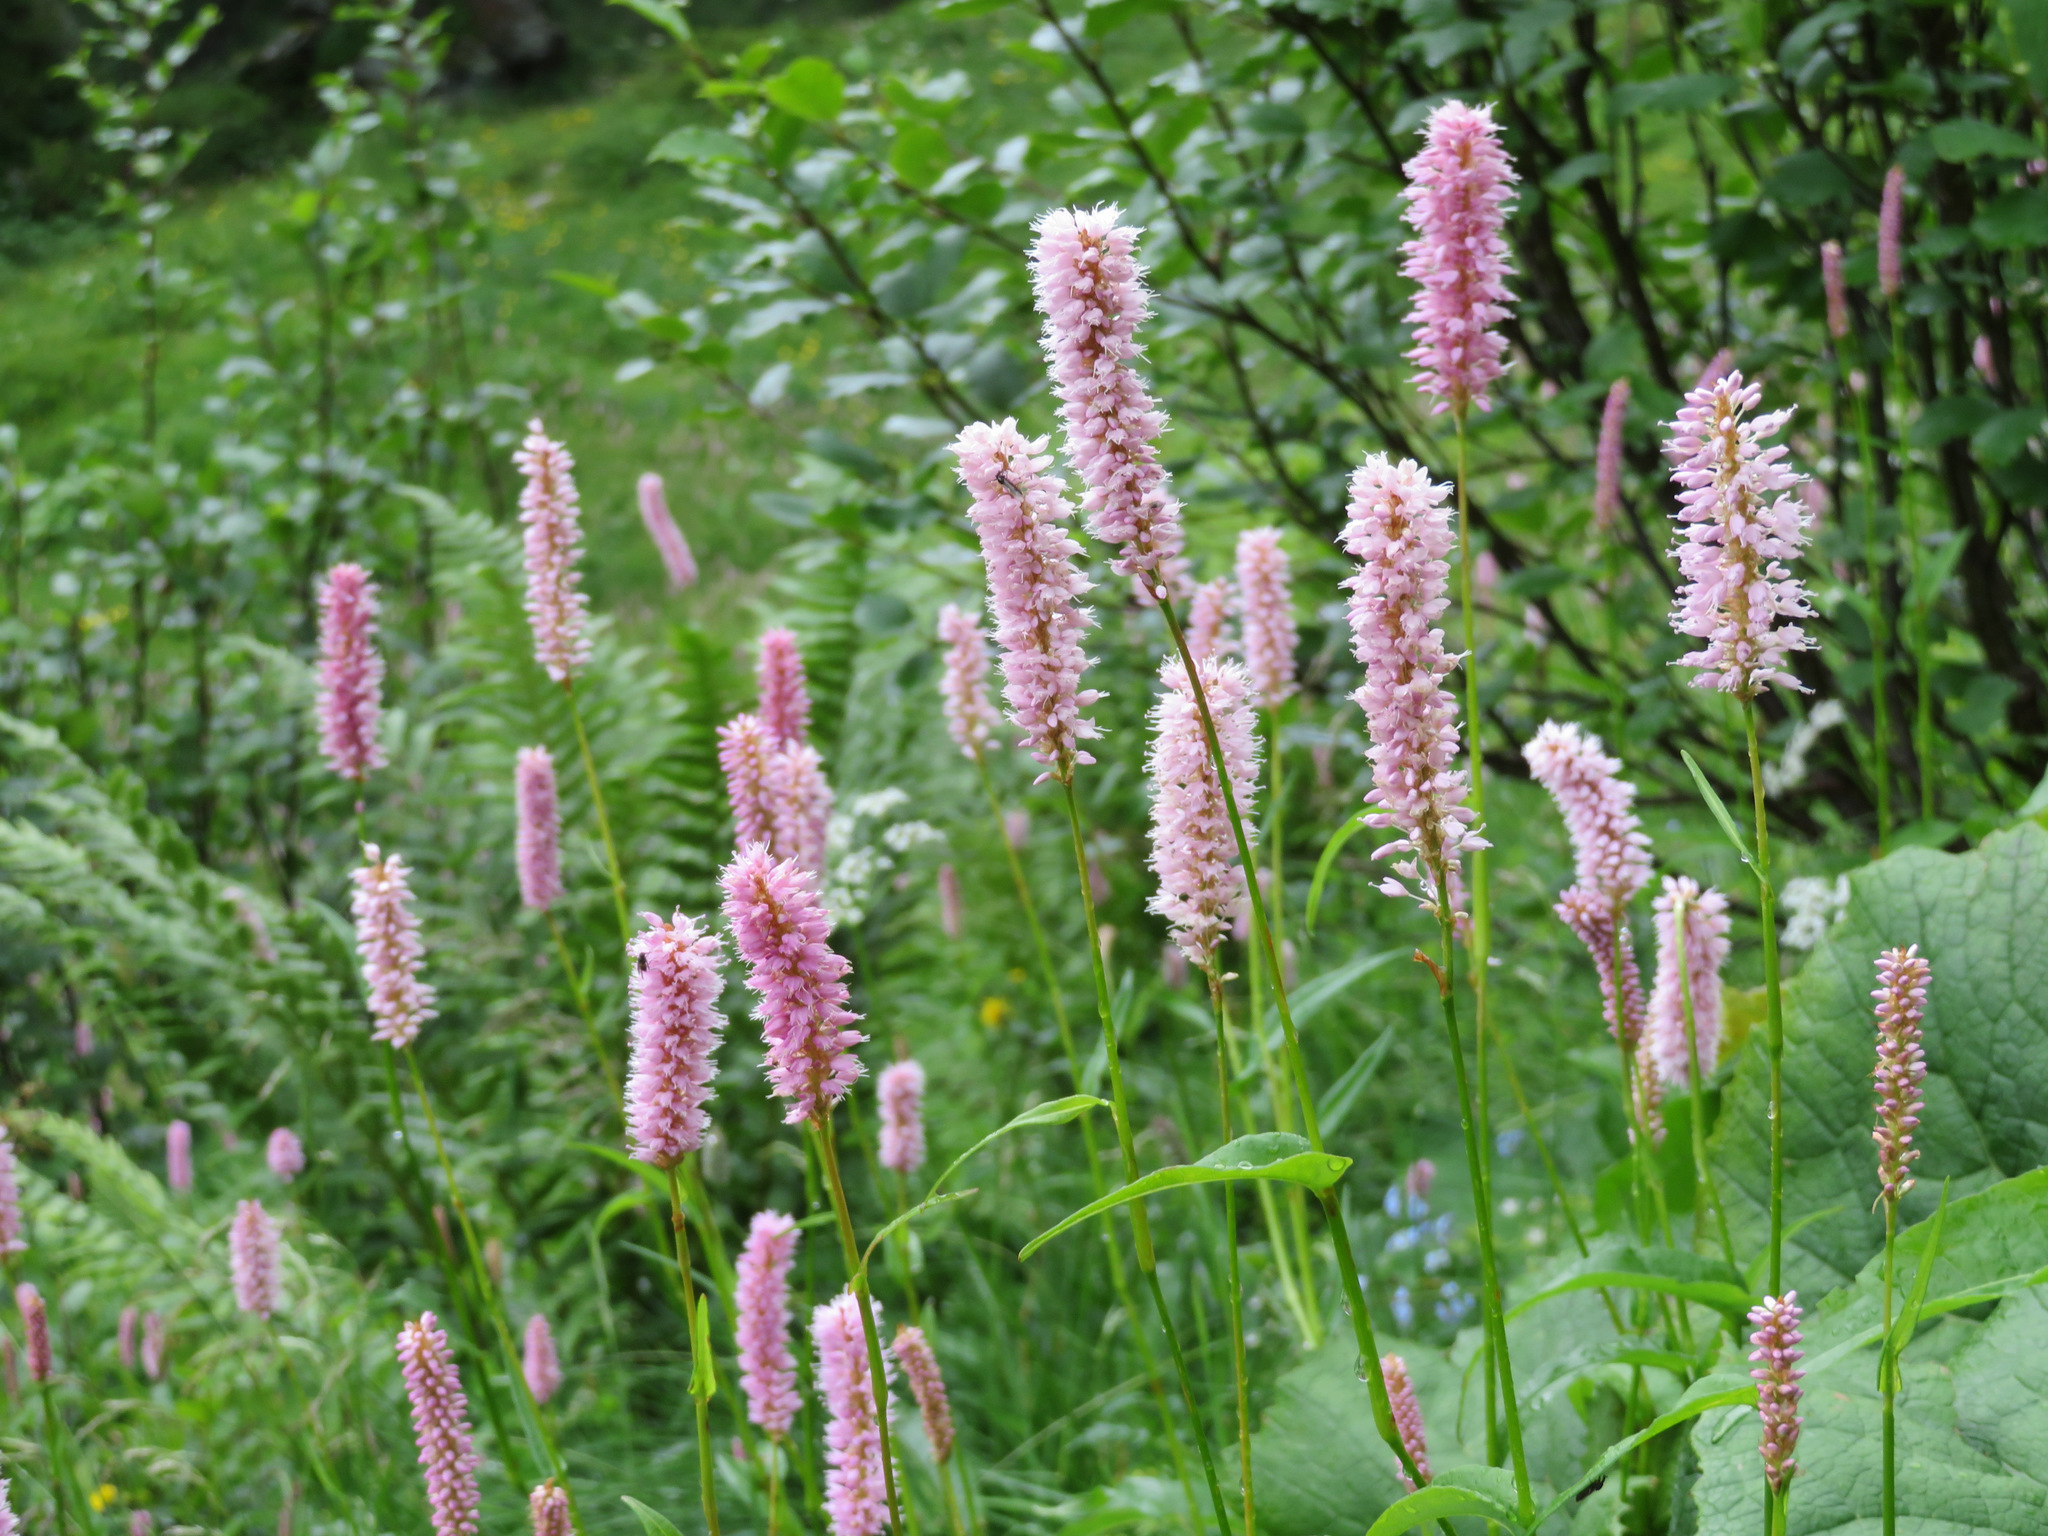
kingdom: Plantae
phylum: Tracheophyta
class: Magnoliopsida
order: Caryophyllales
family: Polygonaceae
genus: Bistorta
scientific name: Bistorta officinalis
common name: Common bistort
